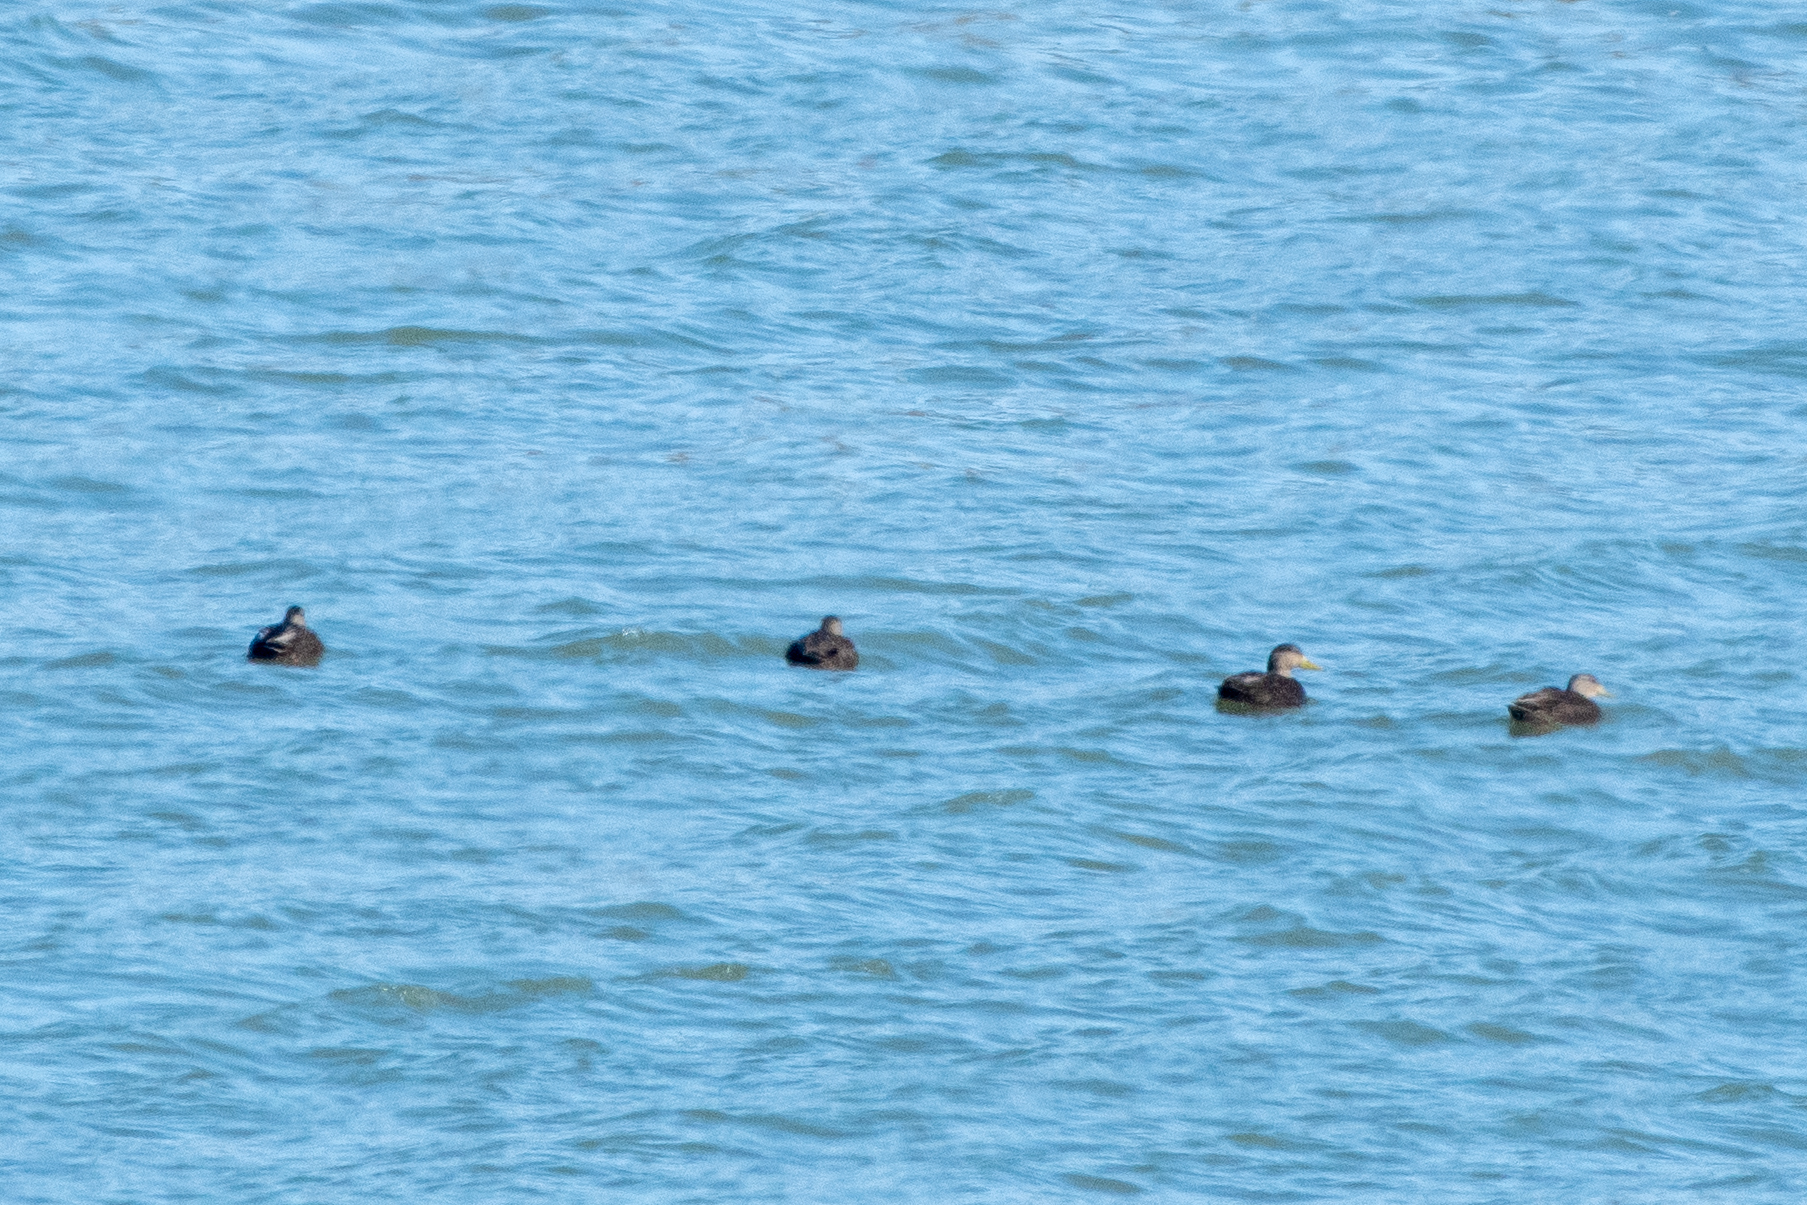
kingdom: Animalia
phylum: Chordata
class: Aves
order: Anseriformes
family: Anatidae
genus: Anas
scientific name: Anas rubripes
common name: American black duck
